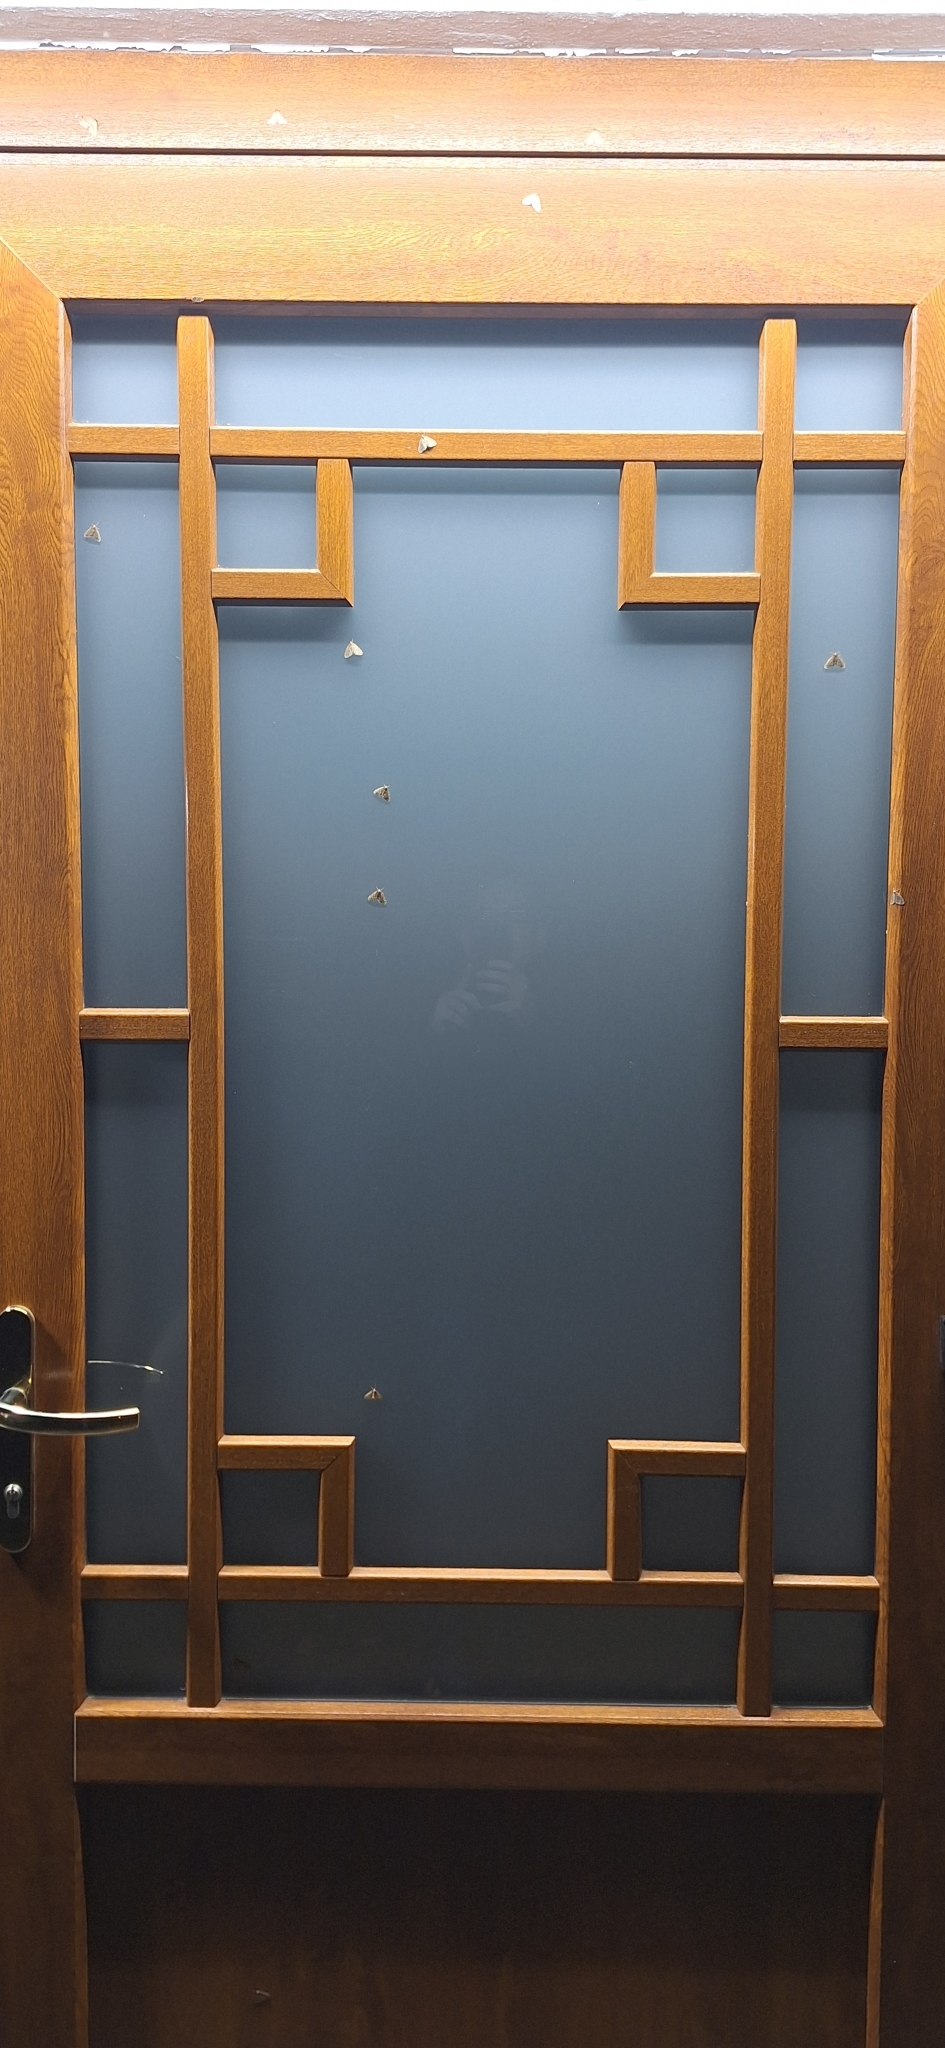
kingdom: Animalia
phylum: Arthropoda
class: Insecta
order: Lepidoptera
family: Geometridae
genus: Operophtera
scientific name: Operophtera brumata
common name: Winter moth
